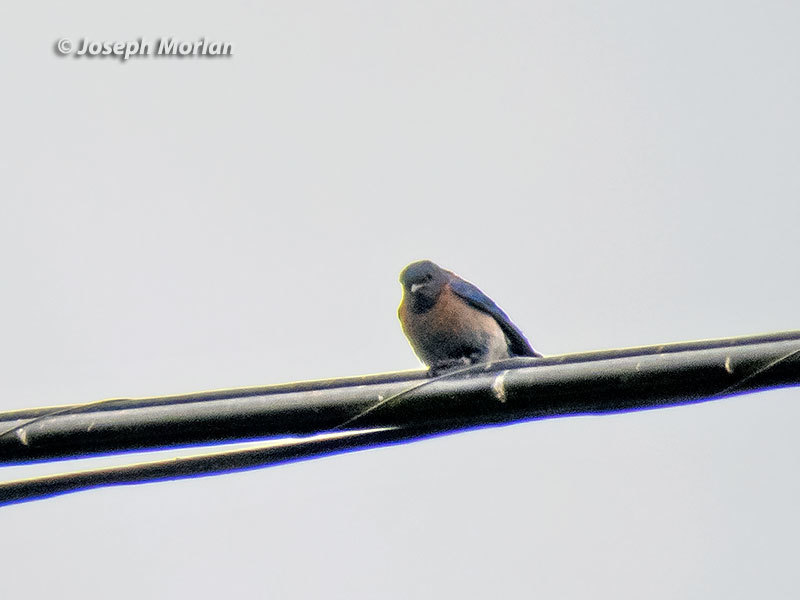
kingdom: Animalia
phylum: Chordata
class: Aves
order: Passeriformes
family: Turdidae
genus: Sialia
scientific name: Sialia mexicana
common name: Western bluebird
